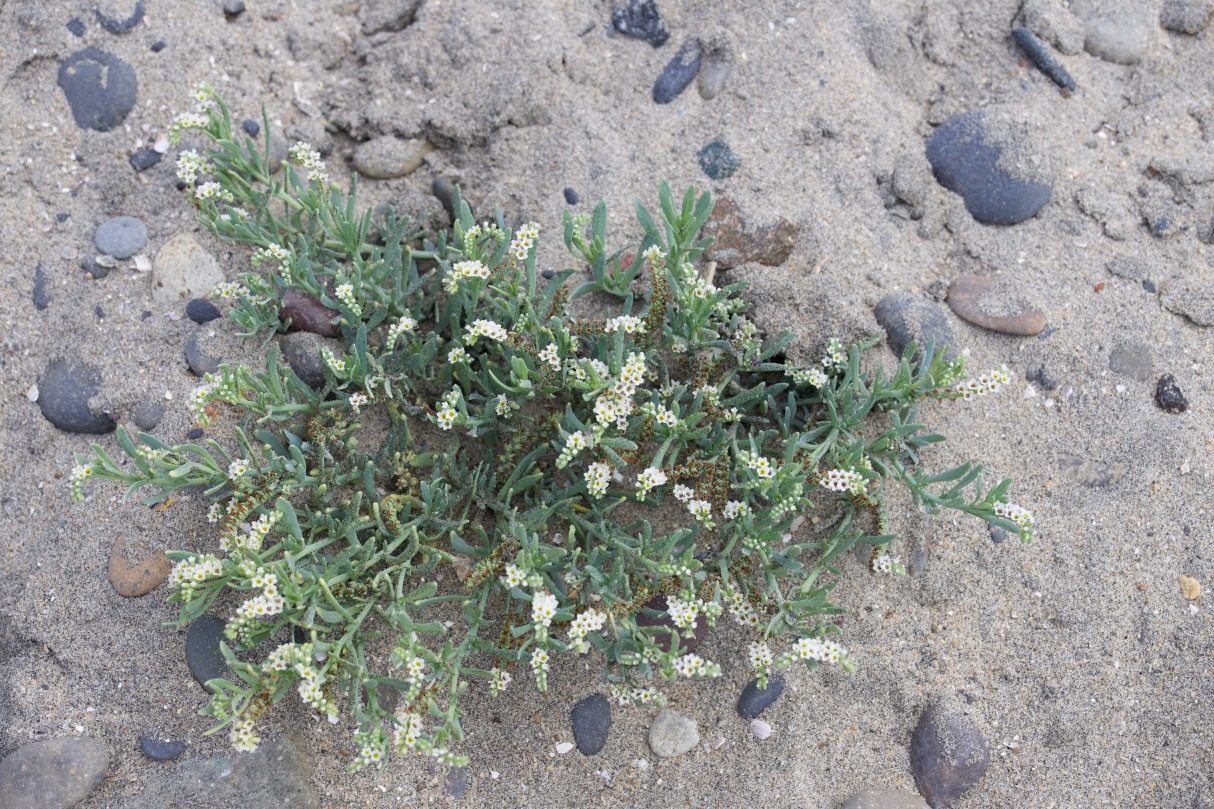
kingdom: Plantae
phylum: Tracheophyta
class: Magnoliopsida
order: Boraginales
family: Heliotropiaceae
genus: Heliotropium
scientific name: Heliotropium curassavicum
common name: Seaside heliotrope
